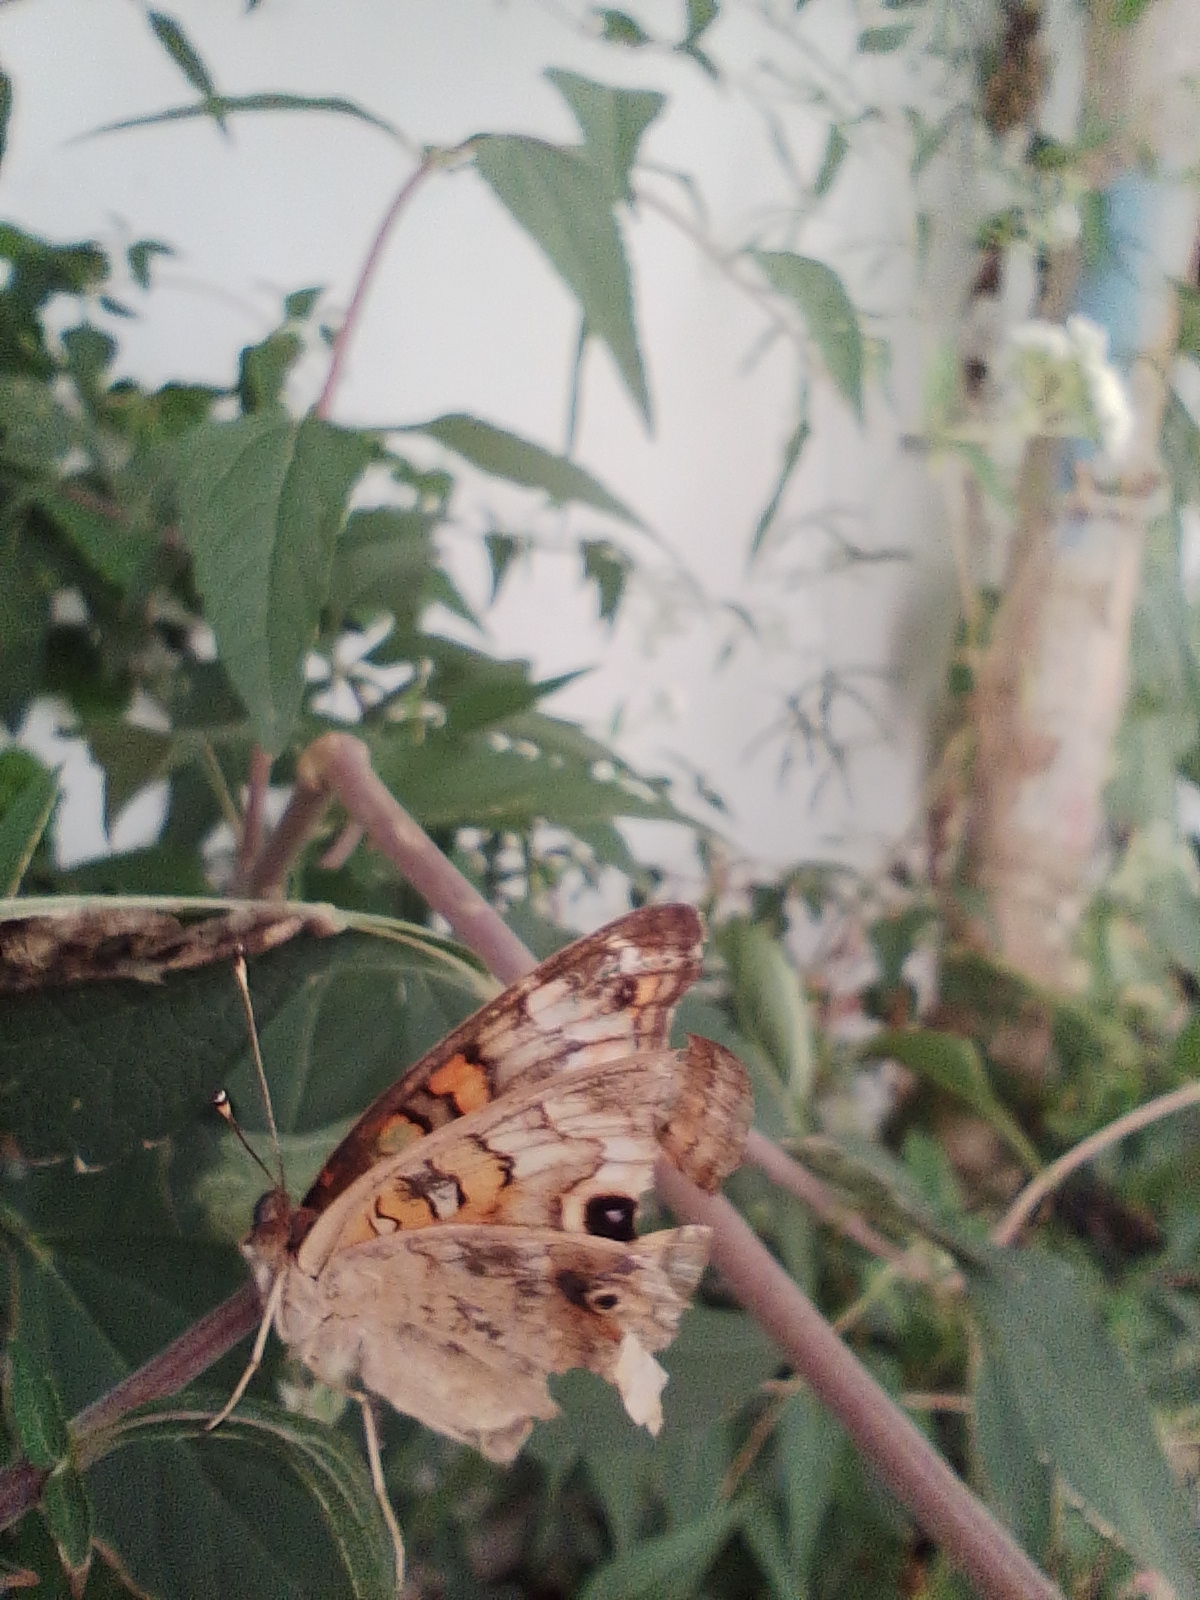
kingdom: Animalia
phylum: Arthropoda
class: Insecta
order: Lepidoptera
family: Nymphalidae
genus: Junonia
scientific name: Junonia lavinia
